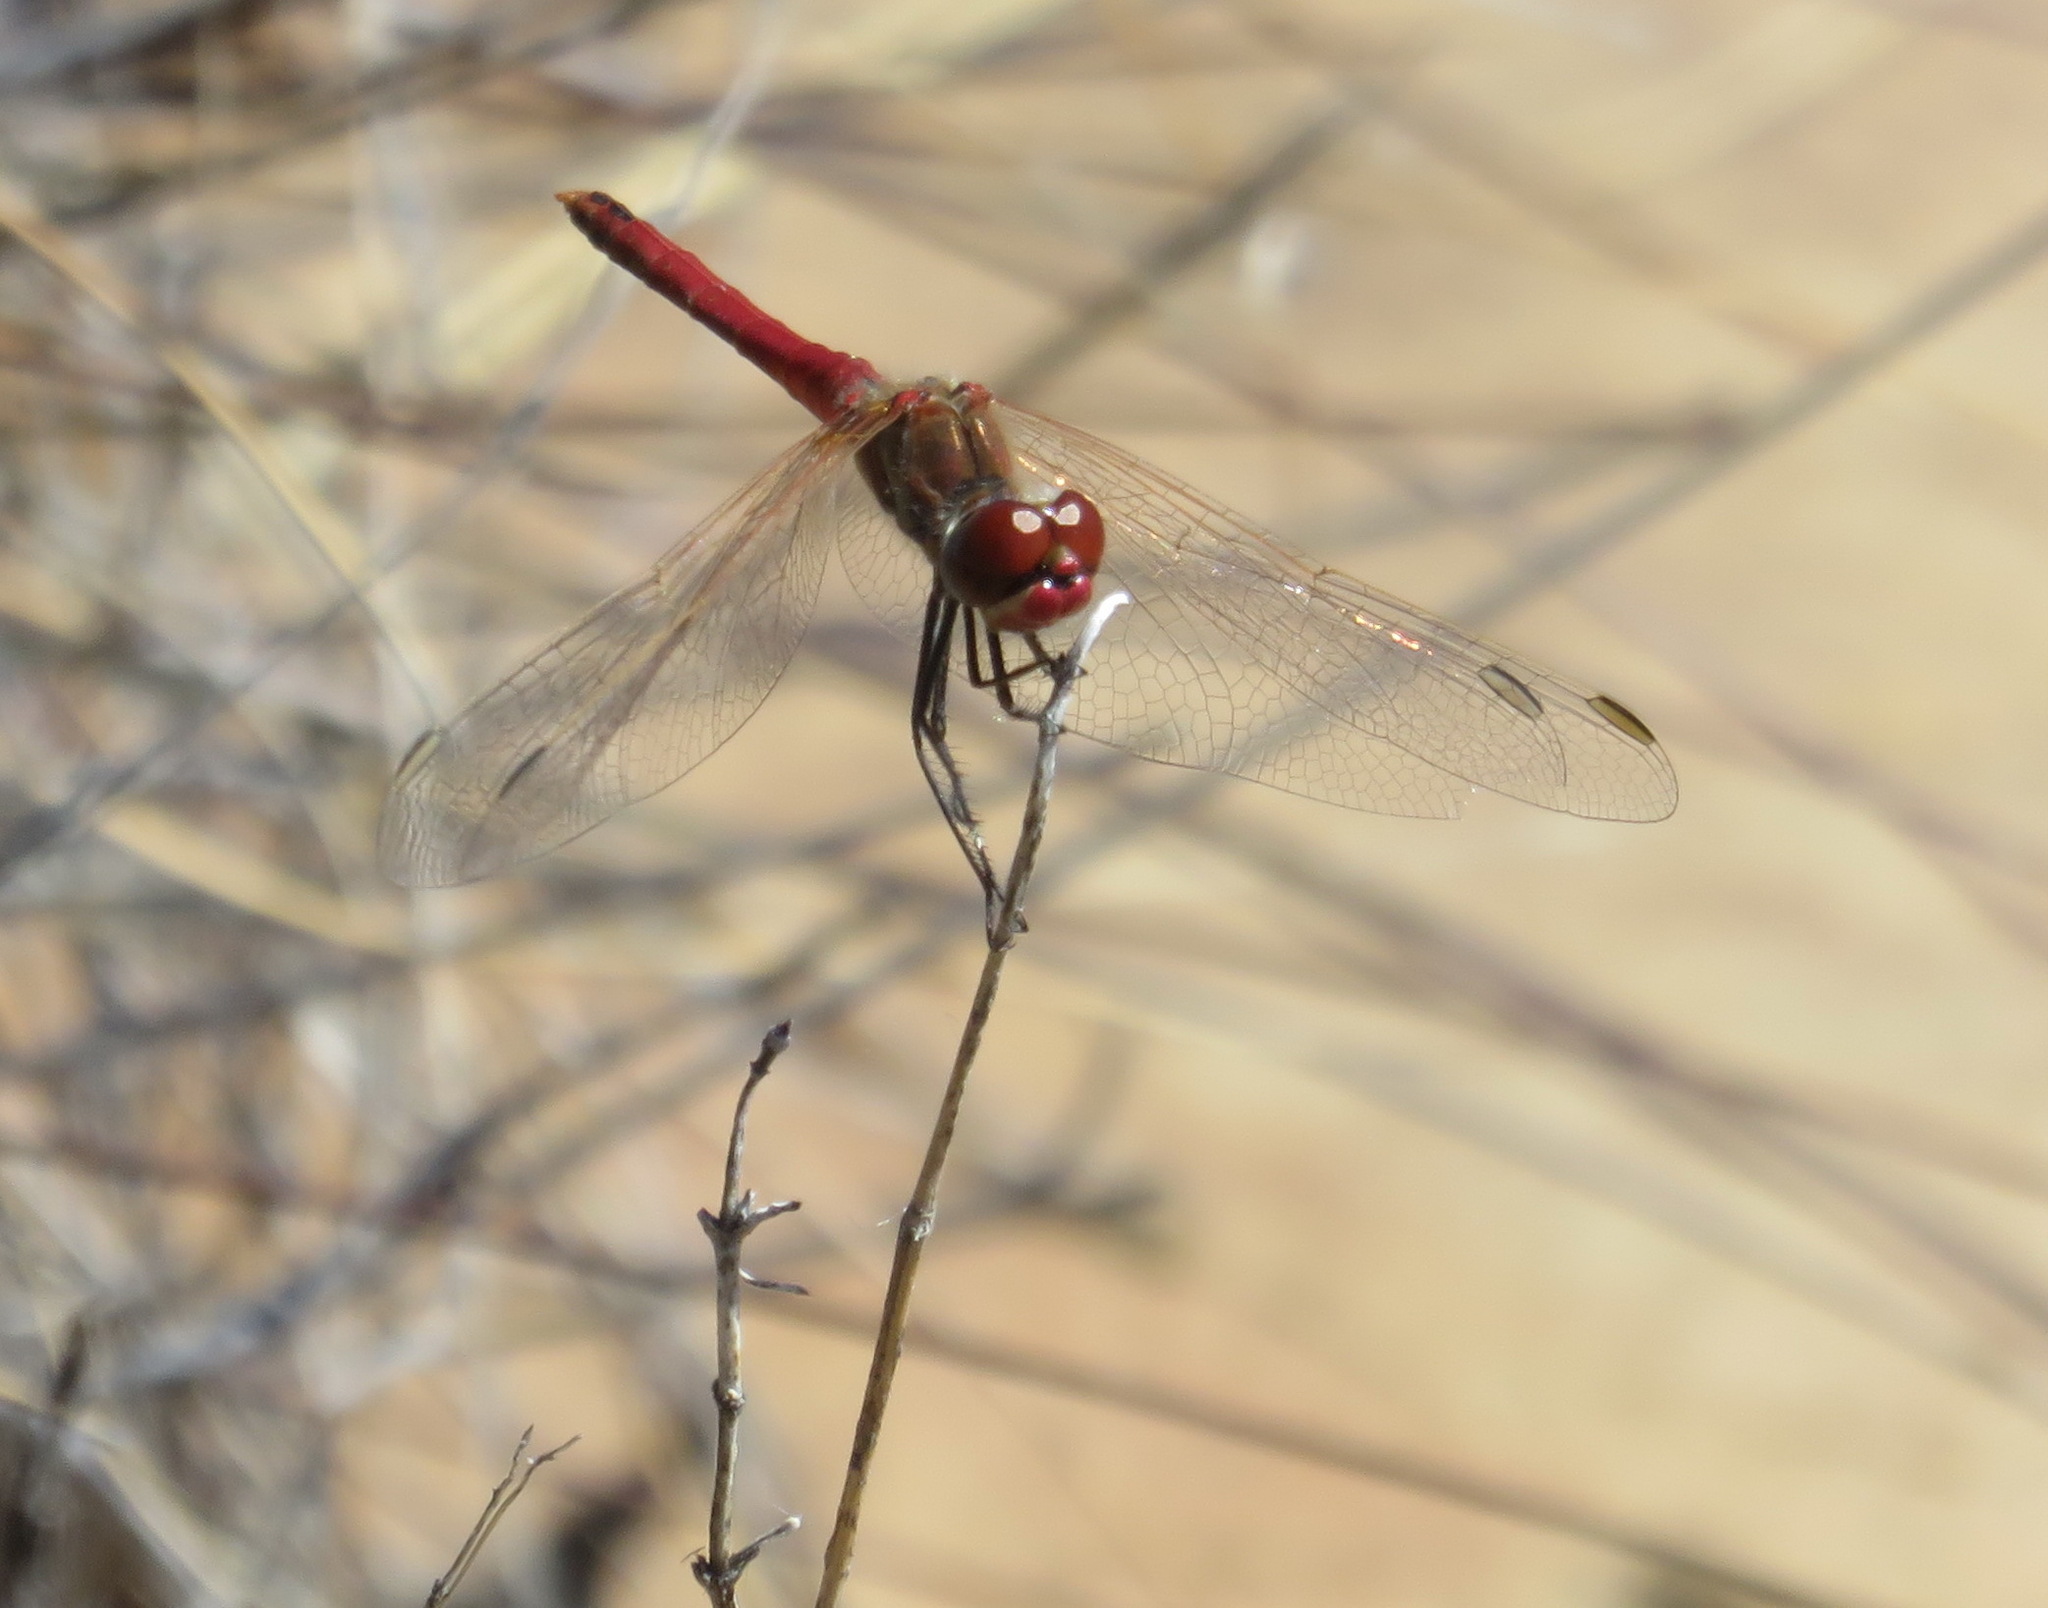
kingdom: Animalia
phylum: Arthropoda
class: Insecta
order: Odonata
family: Libellulidae
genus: Sympetrum
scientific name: Sympetrum fonscolombii
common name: Red-veined darter
